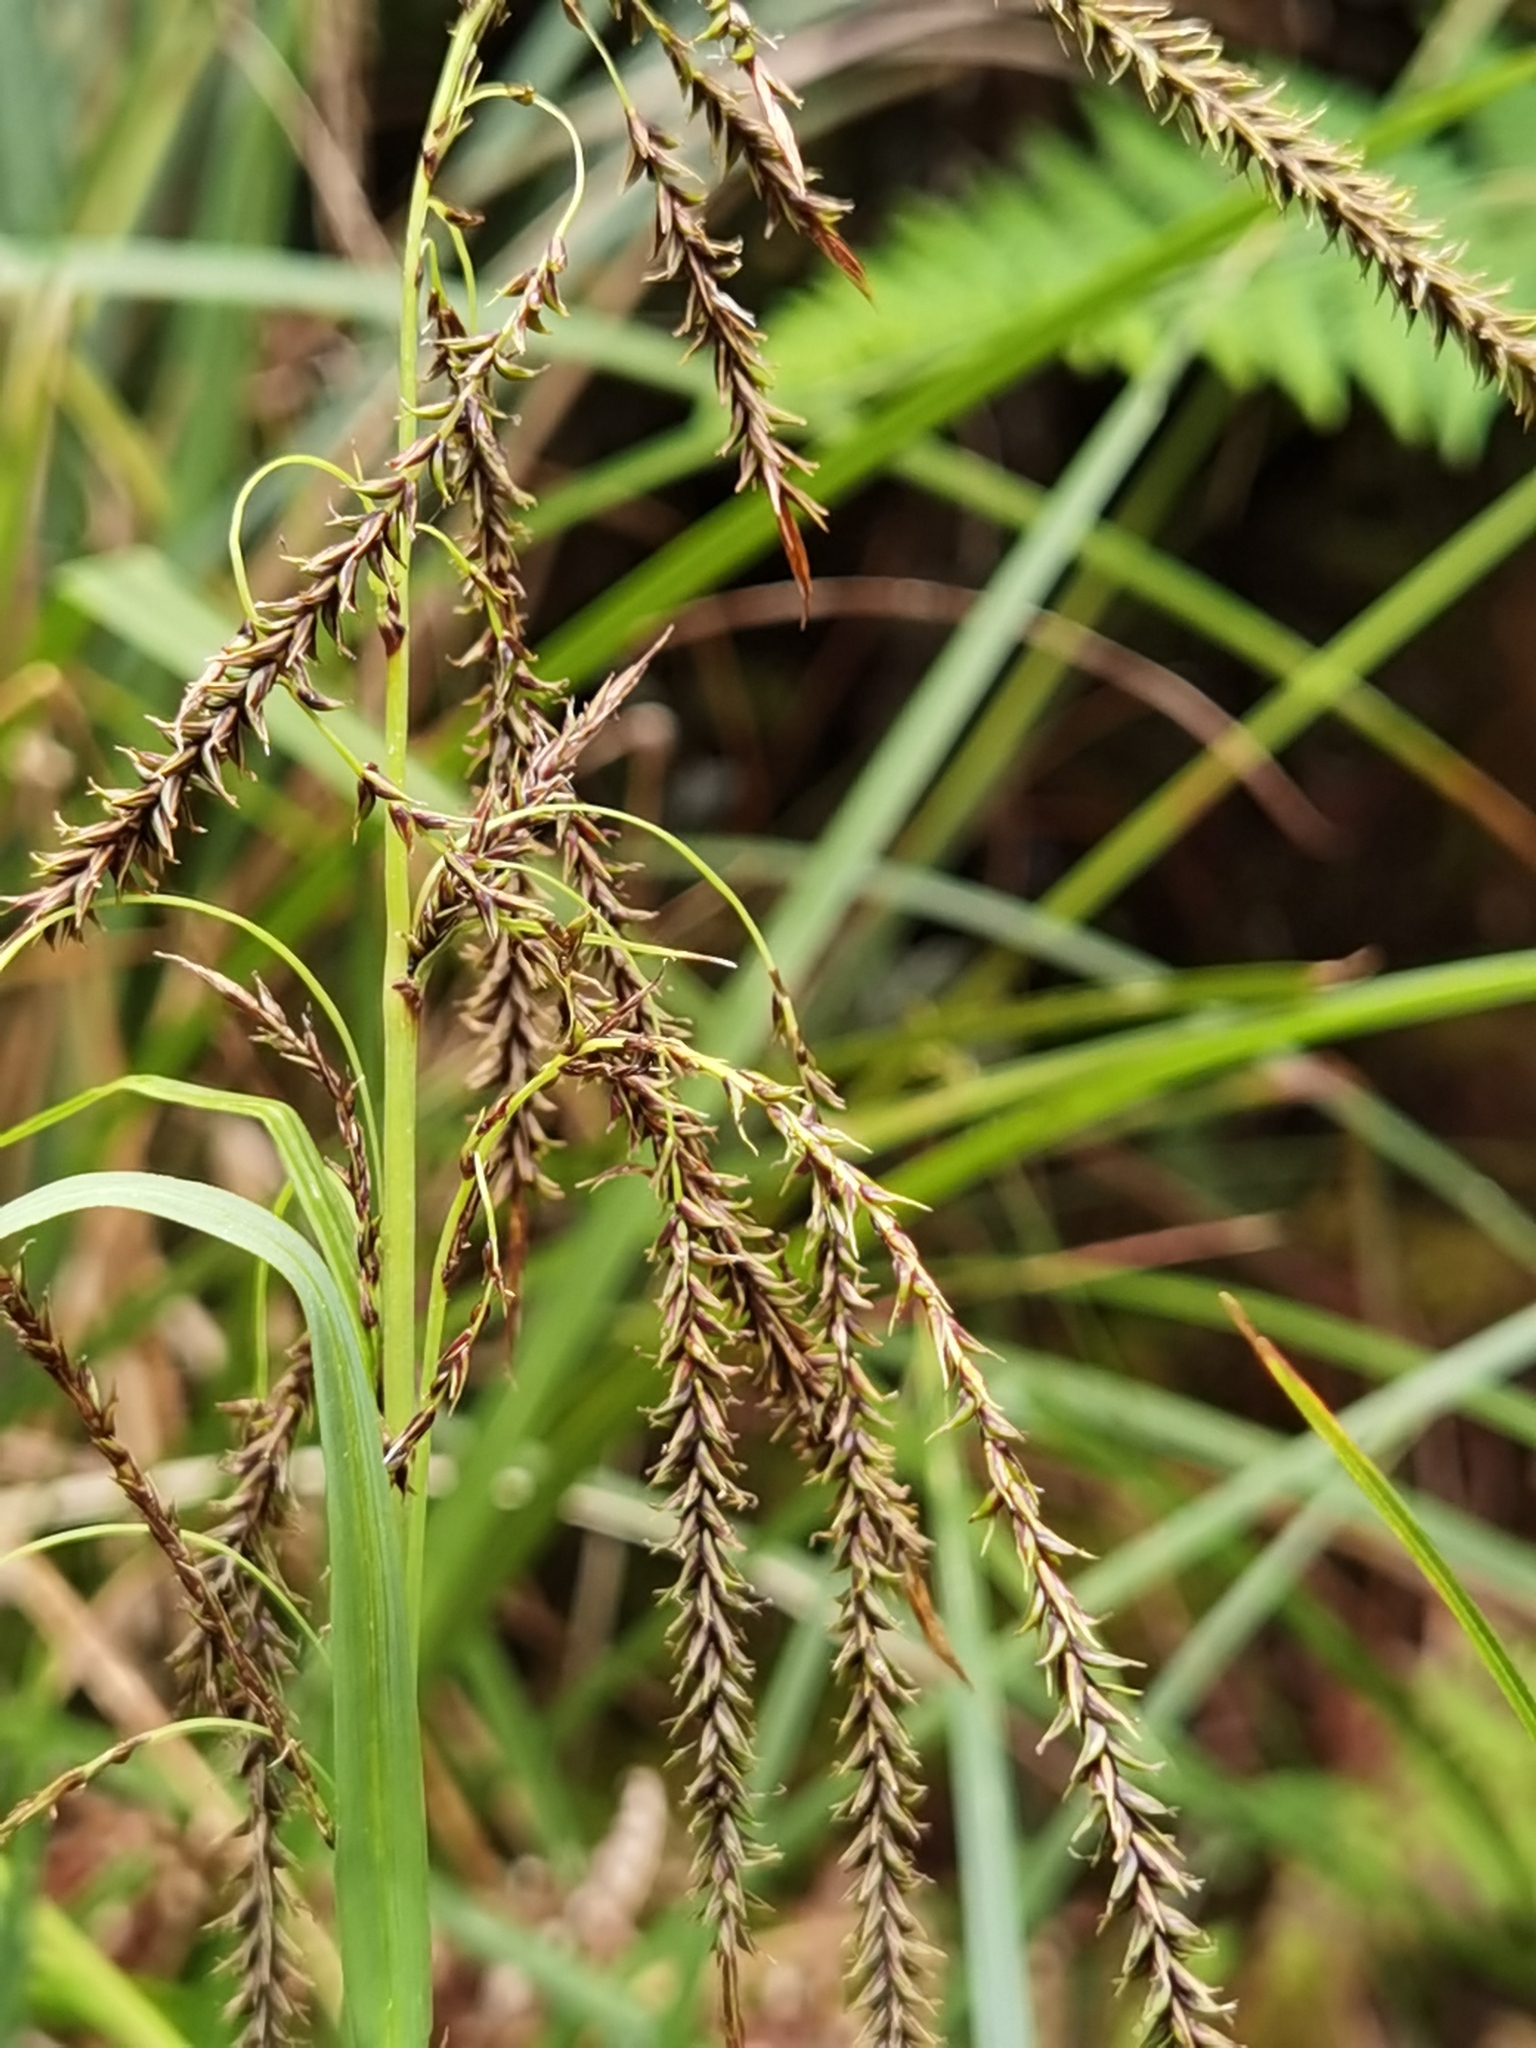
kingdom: Plantae
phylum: Tracheophyta
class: Liliopsida
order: Poales
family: Cyperaceae
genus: Carex
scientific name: Carex donnell-smithii
